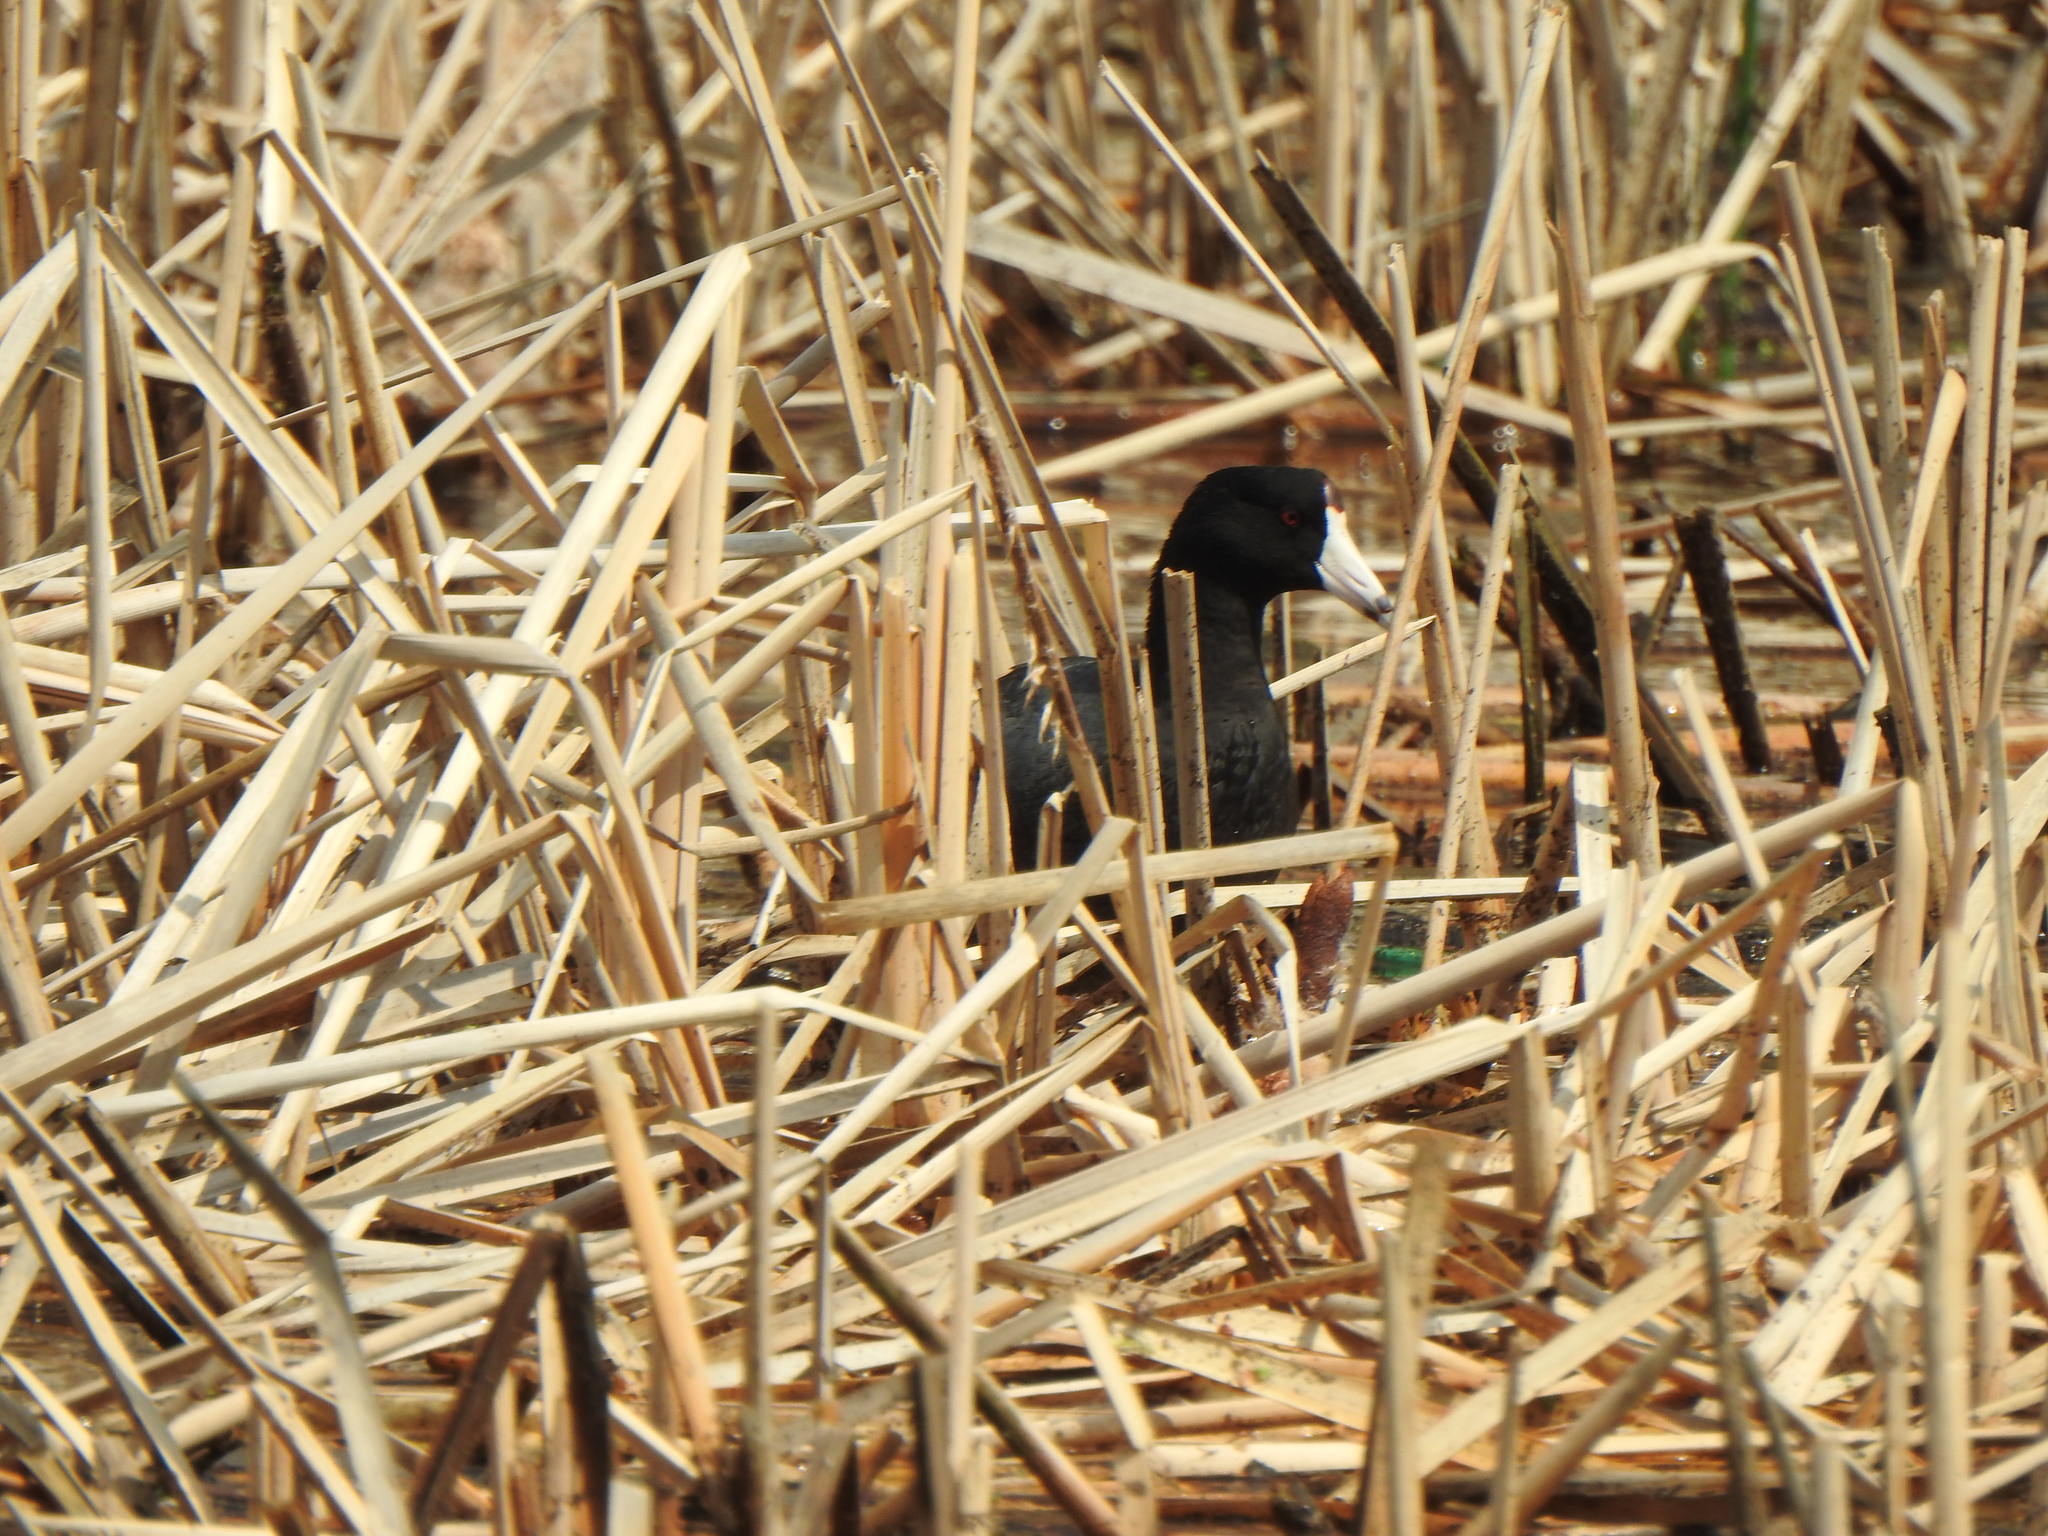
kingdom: Animalia
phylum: Chordata
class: Aves
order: Gruiformes
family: Rallidae
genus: Fulica
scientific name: Fulica americana
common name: American coot
